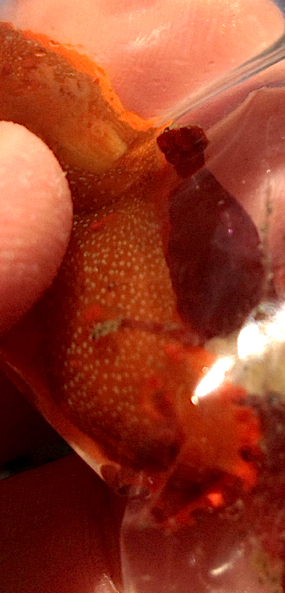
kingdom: Animalia
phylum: Mollusca
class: Gastropoda
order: Nudibranchia
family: Polyceridae
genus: Triopha
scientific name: Triopha maculata
